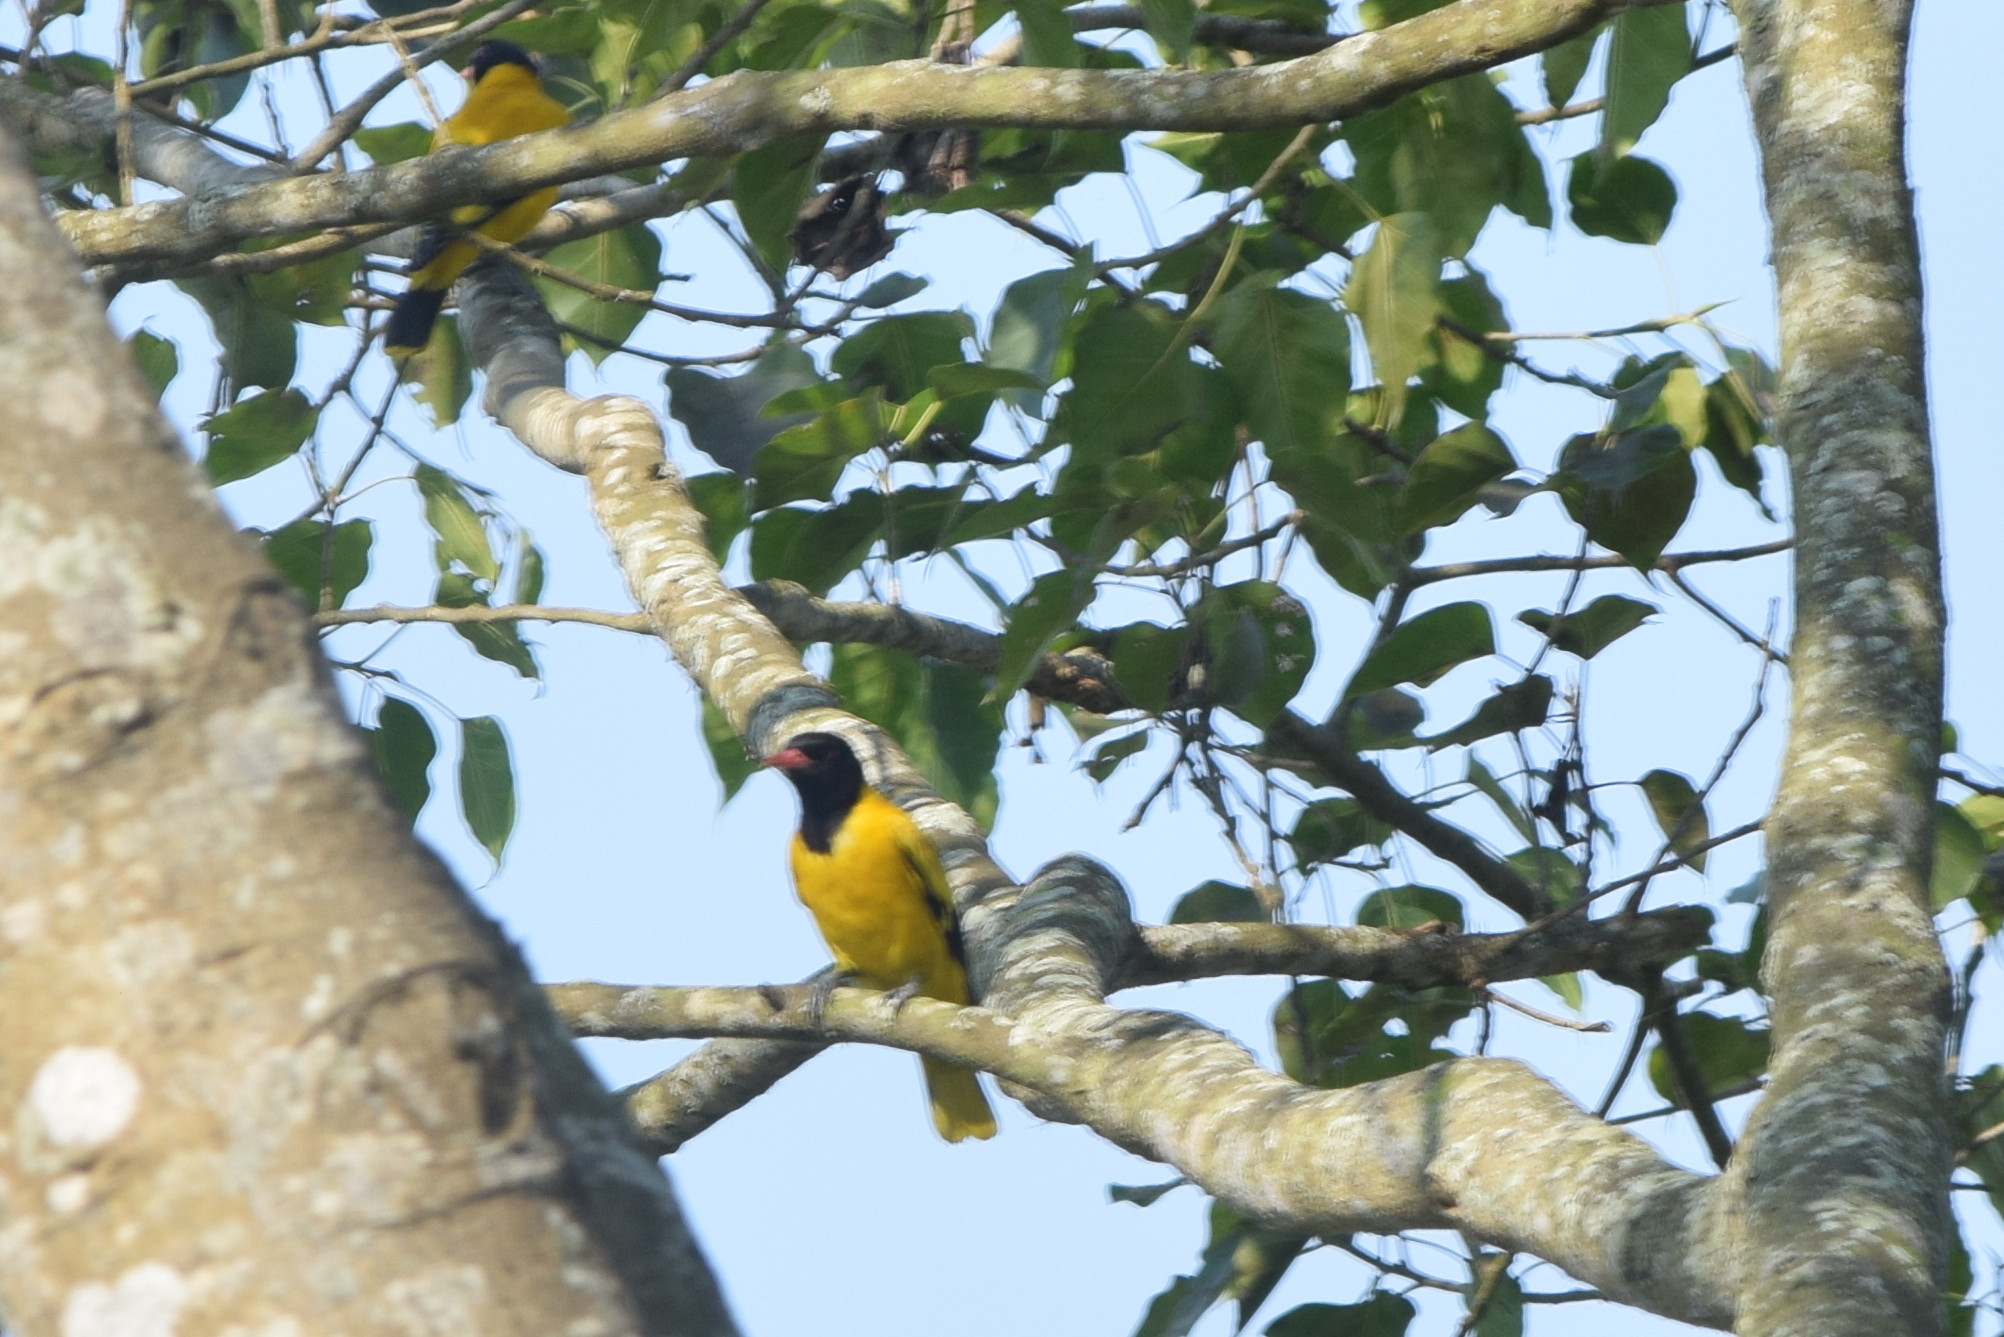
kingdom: Animalia
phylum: Chordata
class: Aves
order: Passeriformes
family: Oriolidae
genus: Oriolus
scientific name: Oriolus xanthornus
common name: Black-hooded oriole
